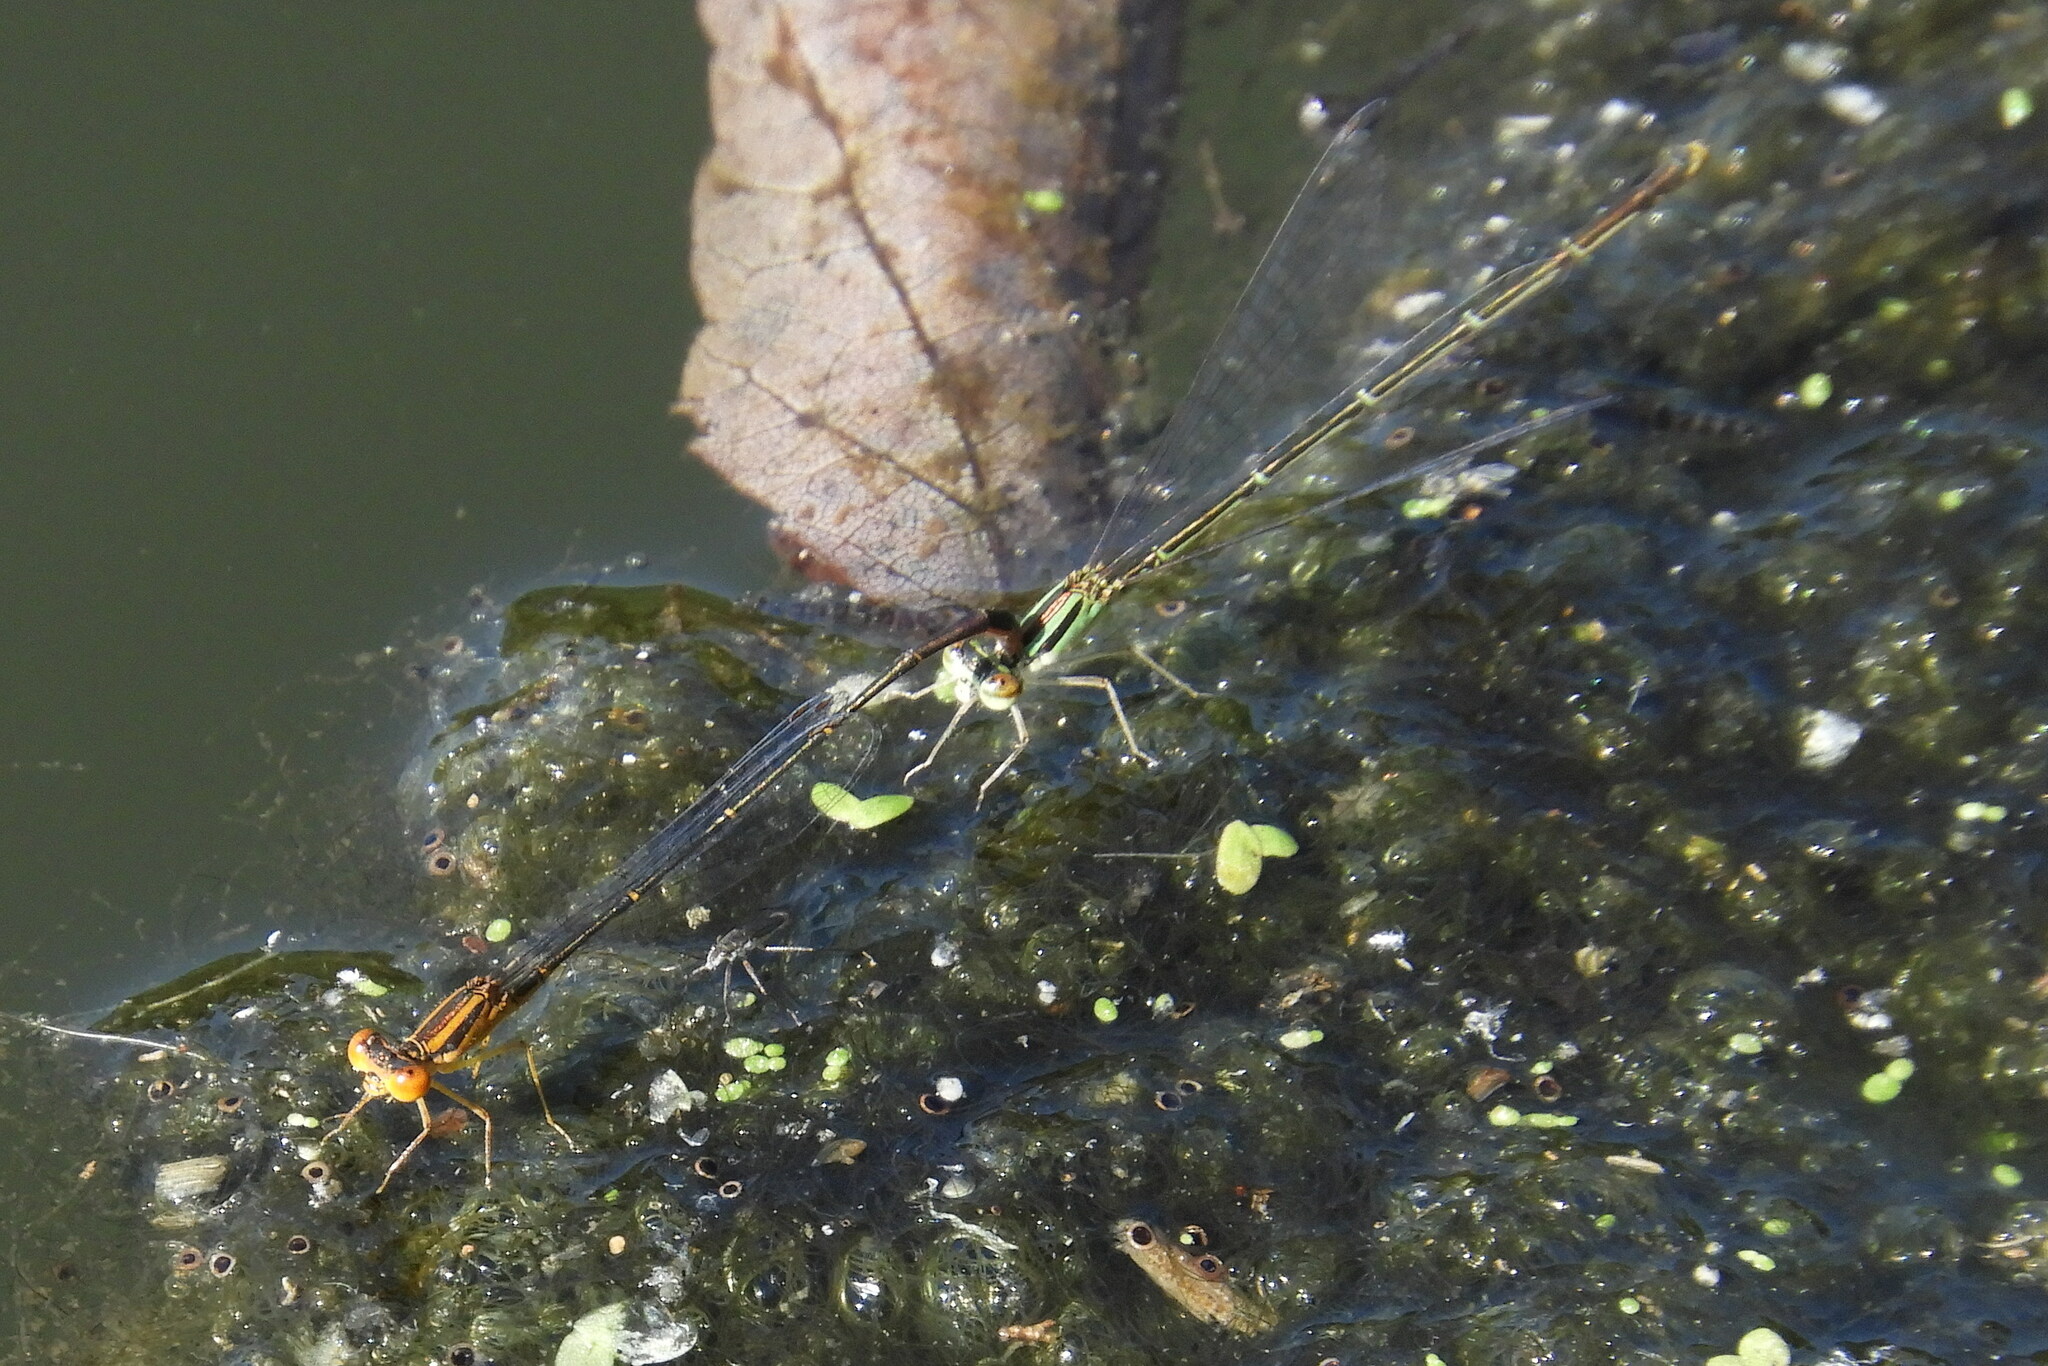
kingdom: Animalia
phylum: Arthropoda
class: Insecta
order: Odonata
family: Coenagrionidae
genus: Enallagma
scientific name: Enallagma signatum
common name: Orange bluet
